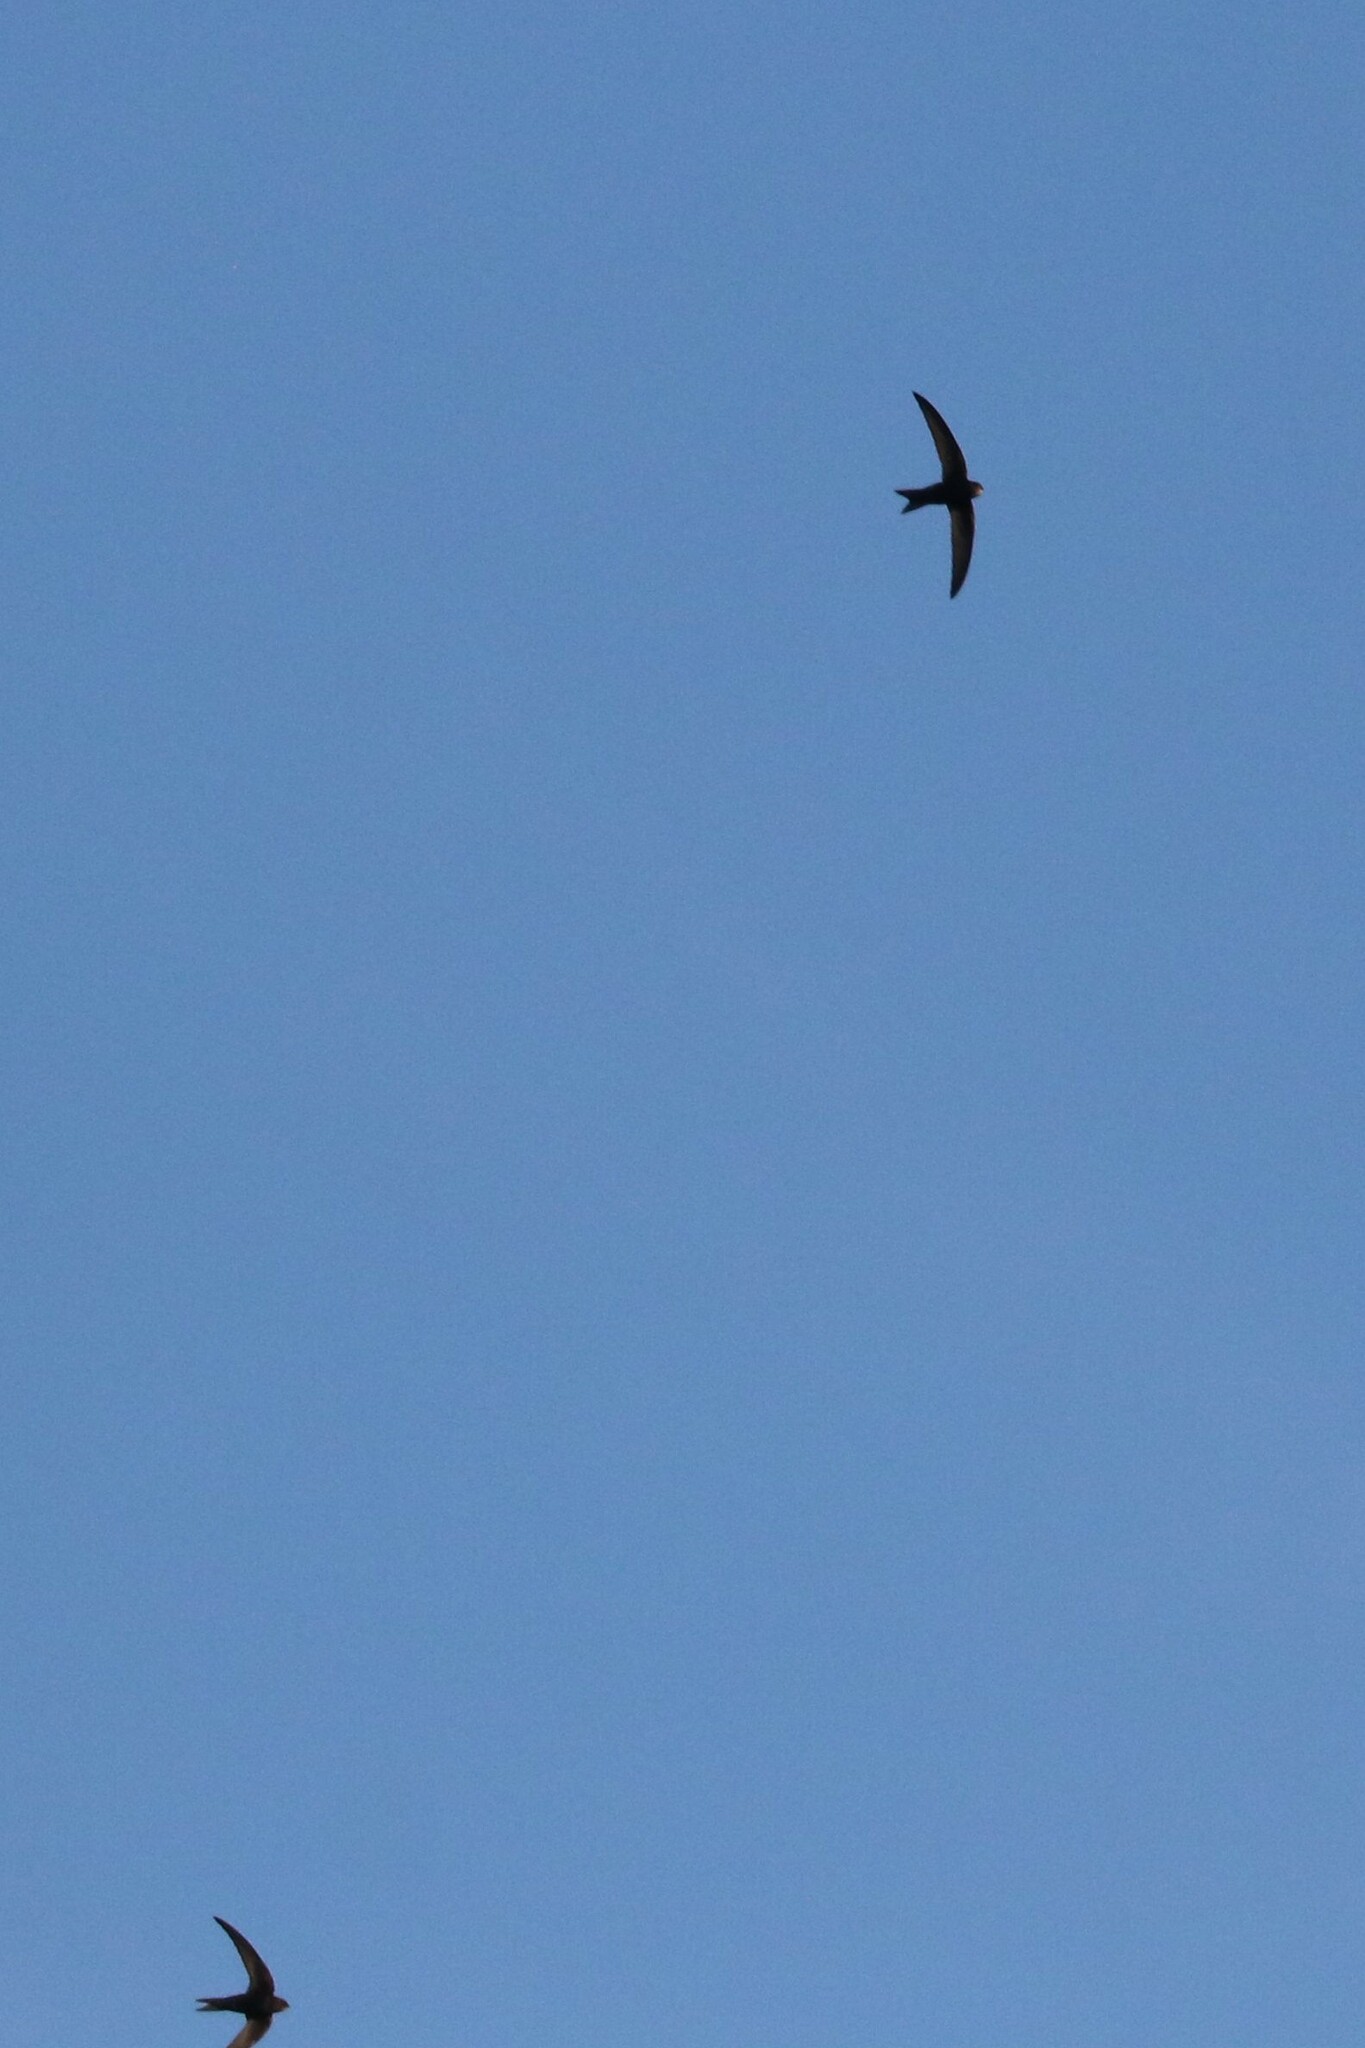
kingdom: Animalia
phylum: Chordata
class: Aves
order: Apodiformes
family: Apodidae
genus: Apus
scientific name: Apus apus
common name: Common swift
